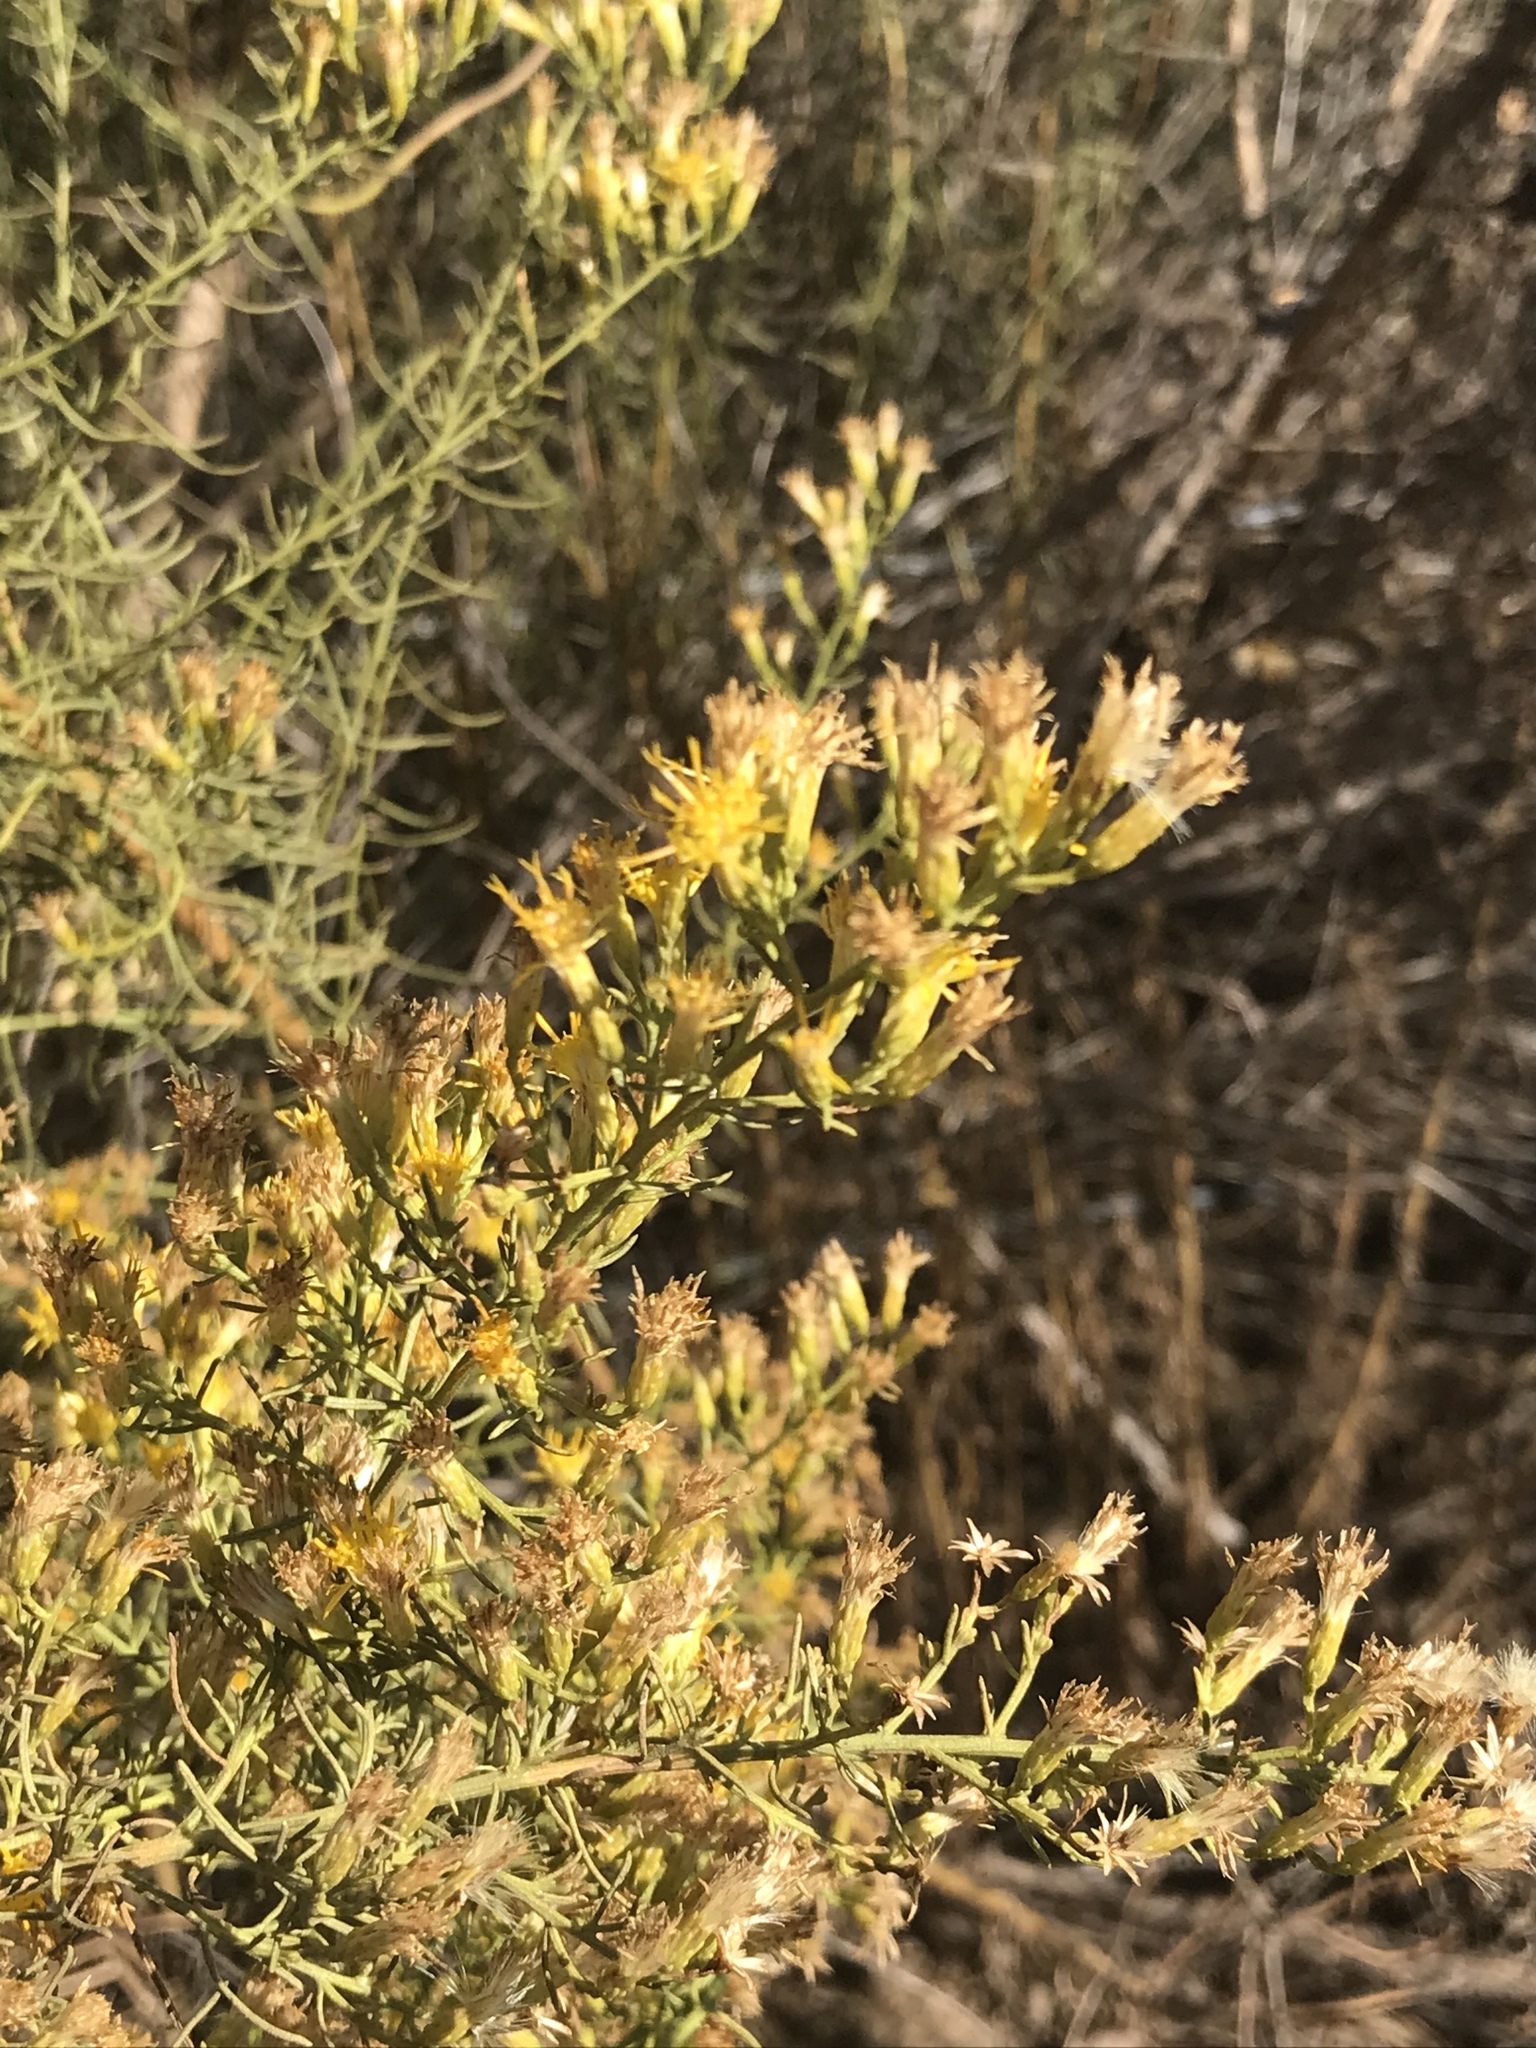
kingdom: Plantae
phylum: Tracheophyta
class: Magnoliopsida
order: Asterales
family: Asteraceae
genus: Ericameria
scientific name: Ericameria palmeri
